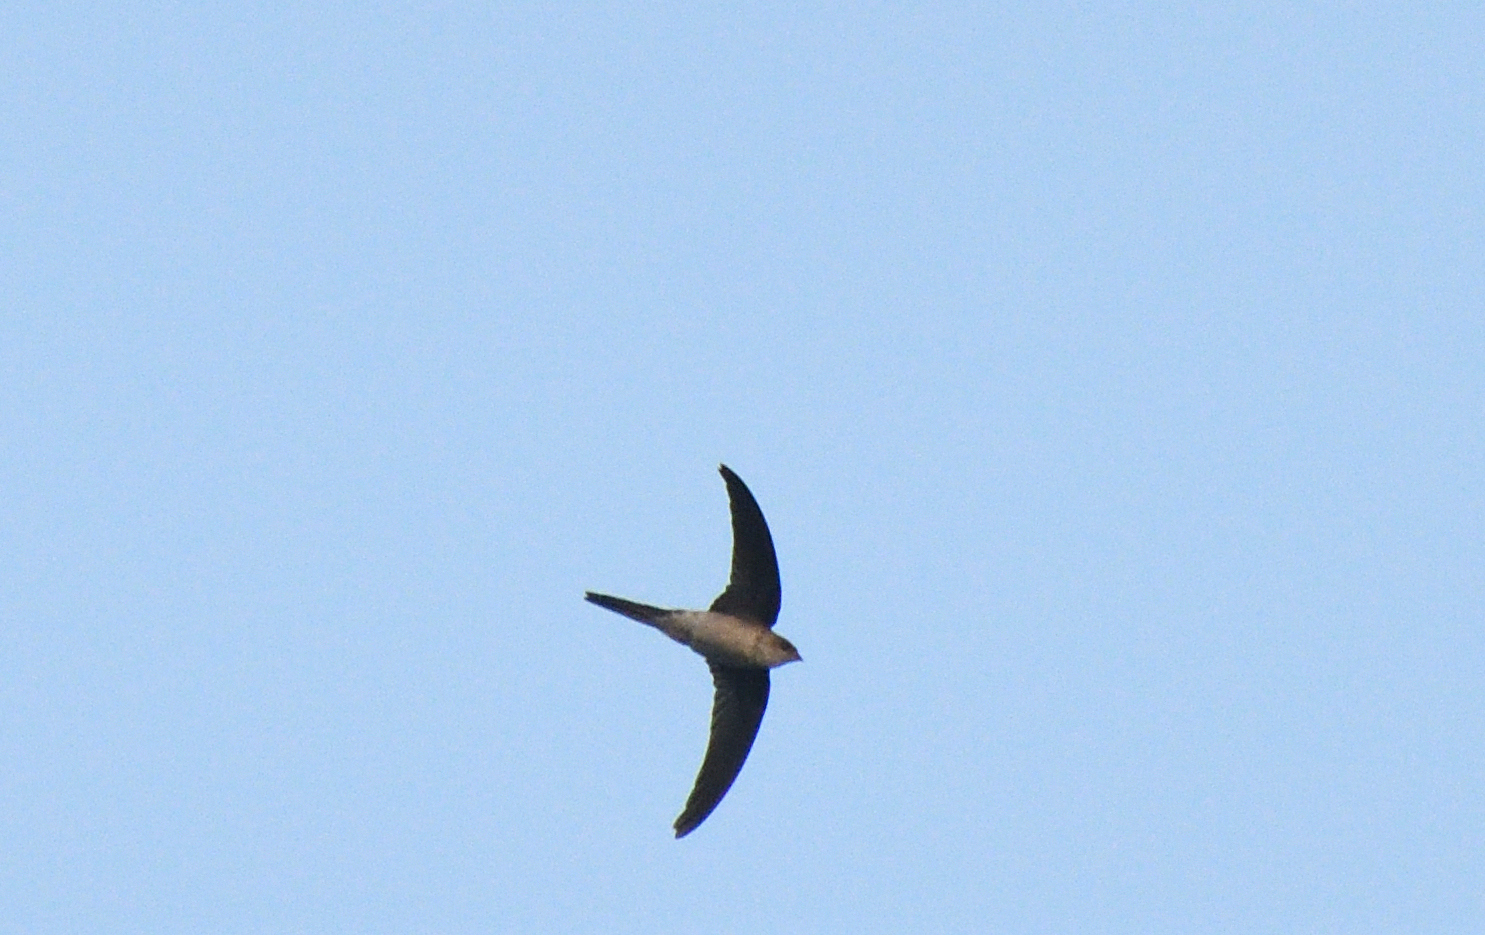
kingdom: Animalia
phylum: Chordata
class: Aves
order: Apodiformes
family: Apodidae
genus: Cypsiurus
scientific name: Cypsiurus balasiensis
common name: Asian palm swift
